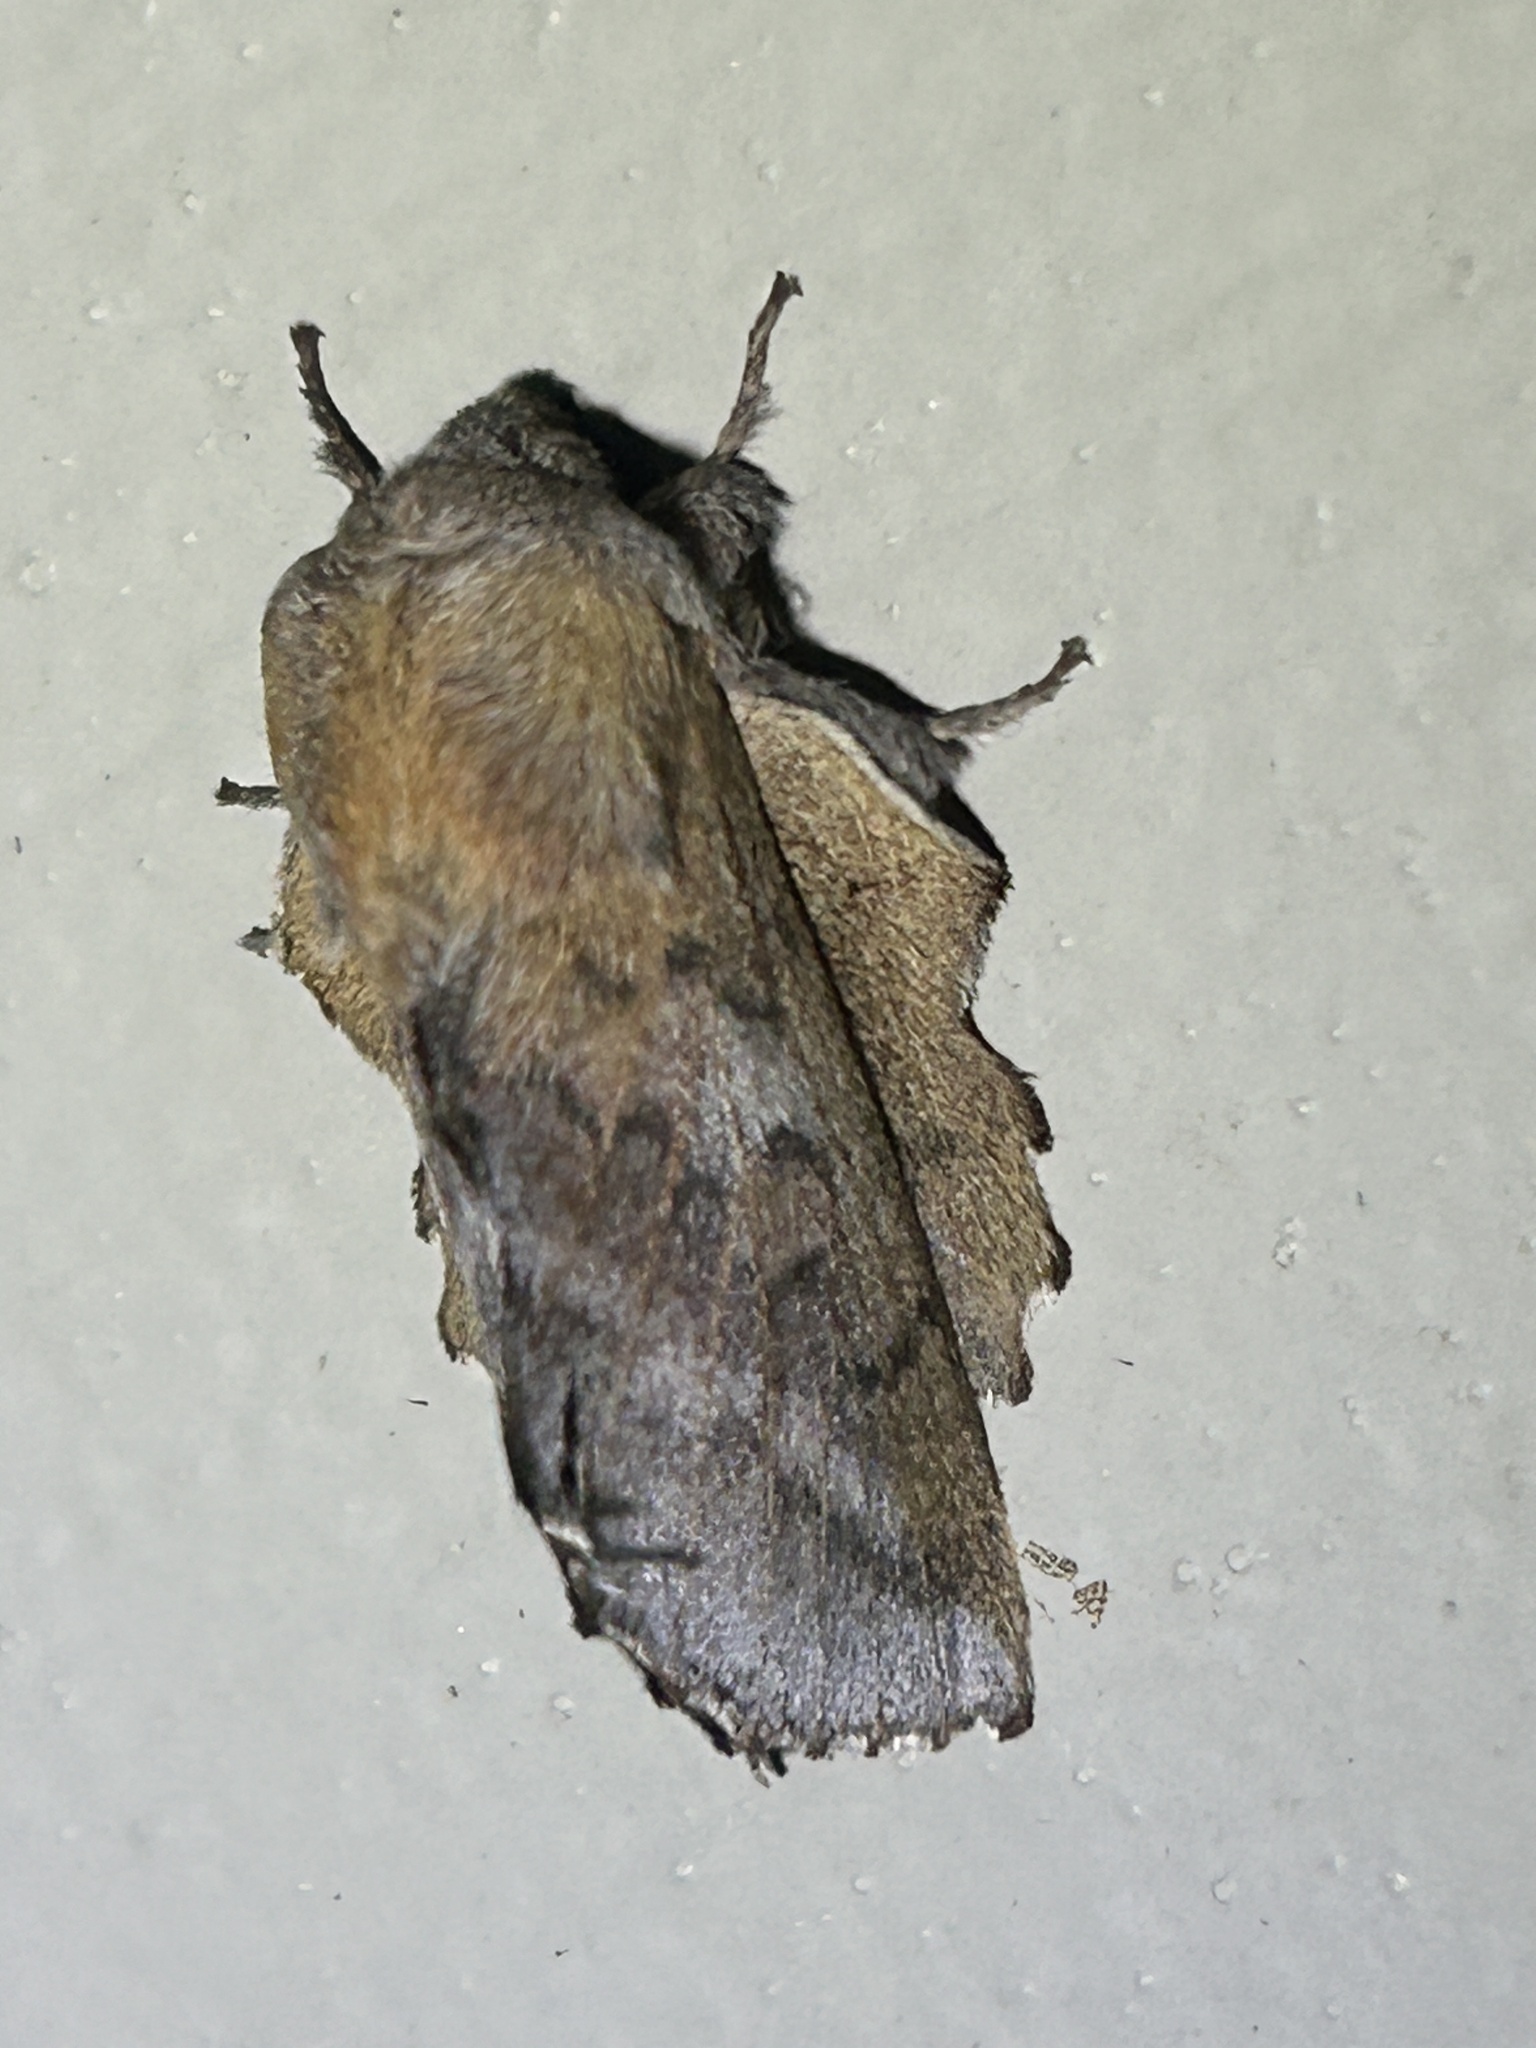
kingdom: Animalia
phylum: Arthropoda
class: Insecta
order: Lepidoptera
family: Lasiocampidae
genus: Phyllodesma
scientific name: Phyllodesma americana
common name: American lappet moth
